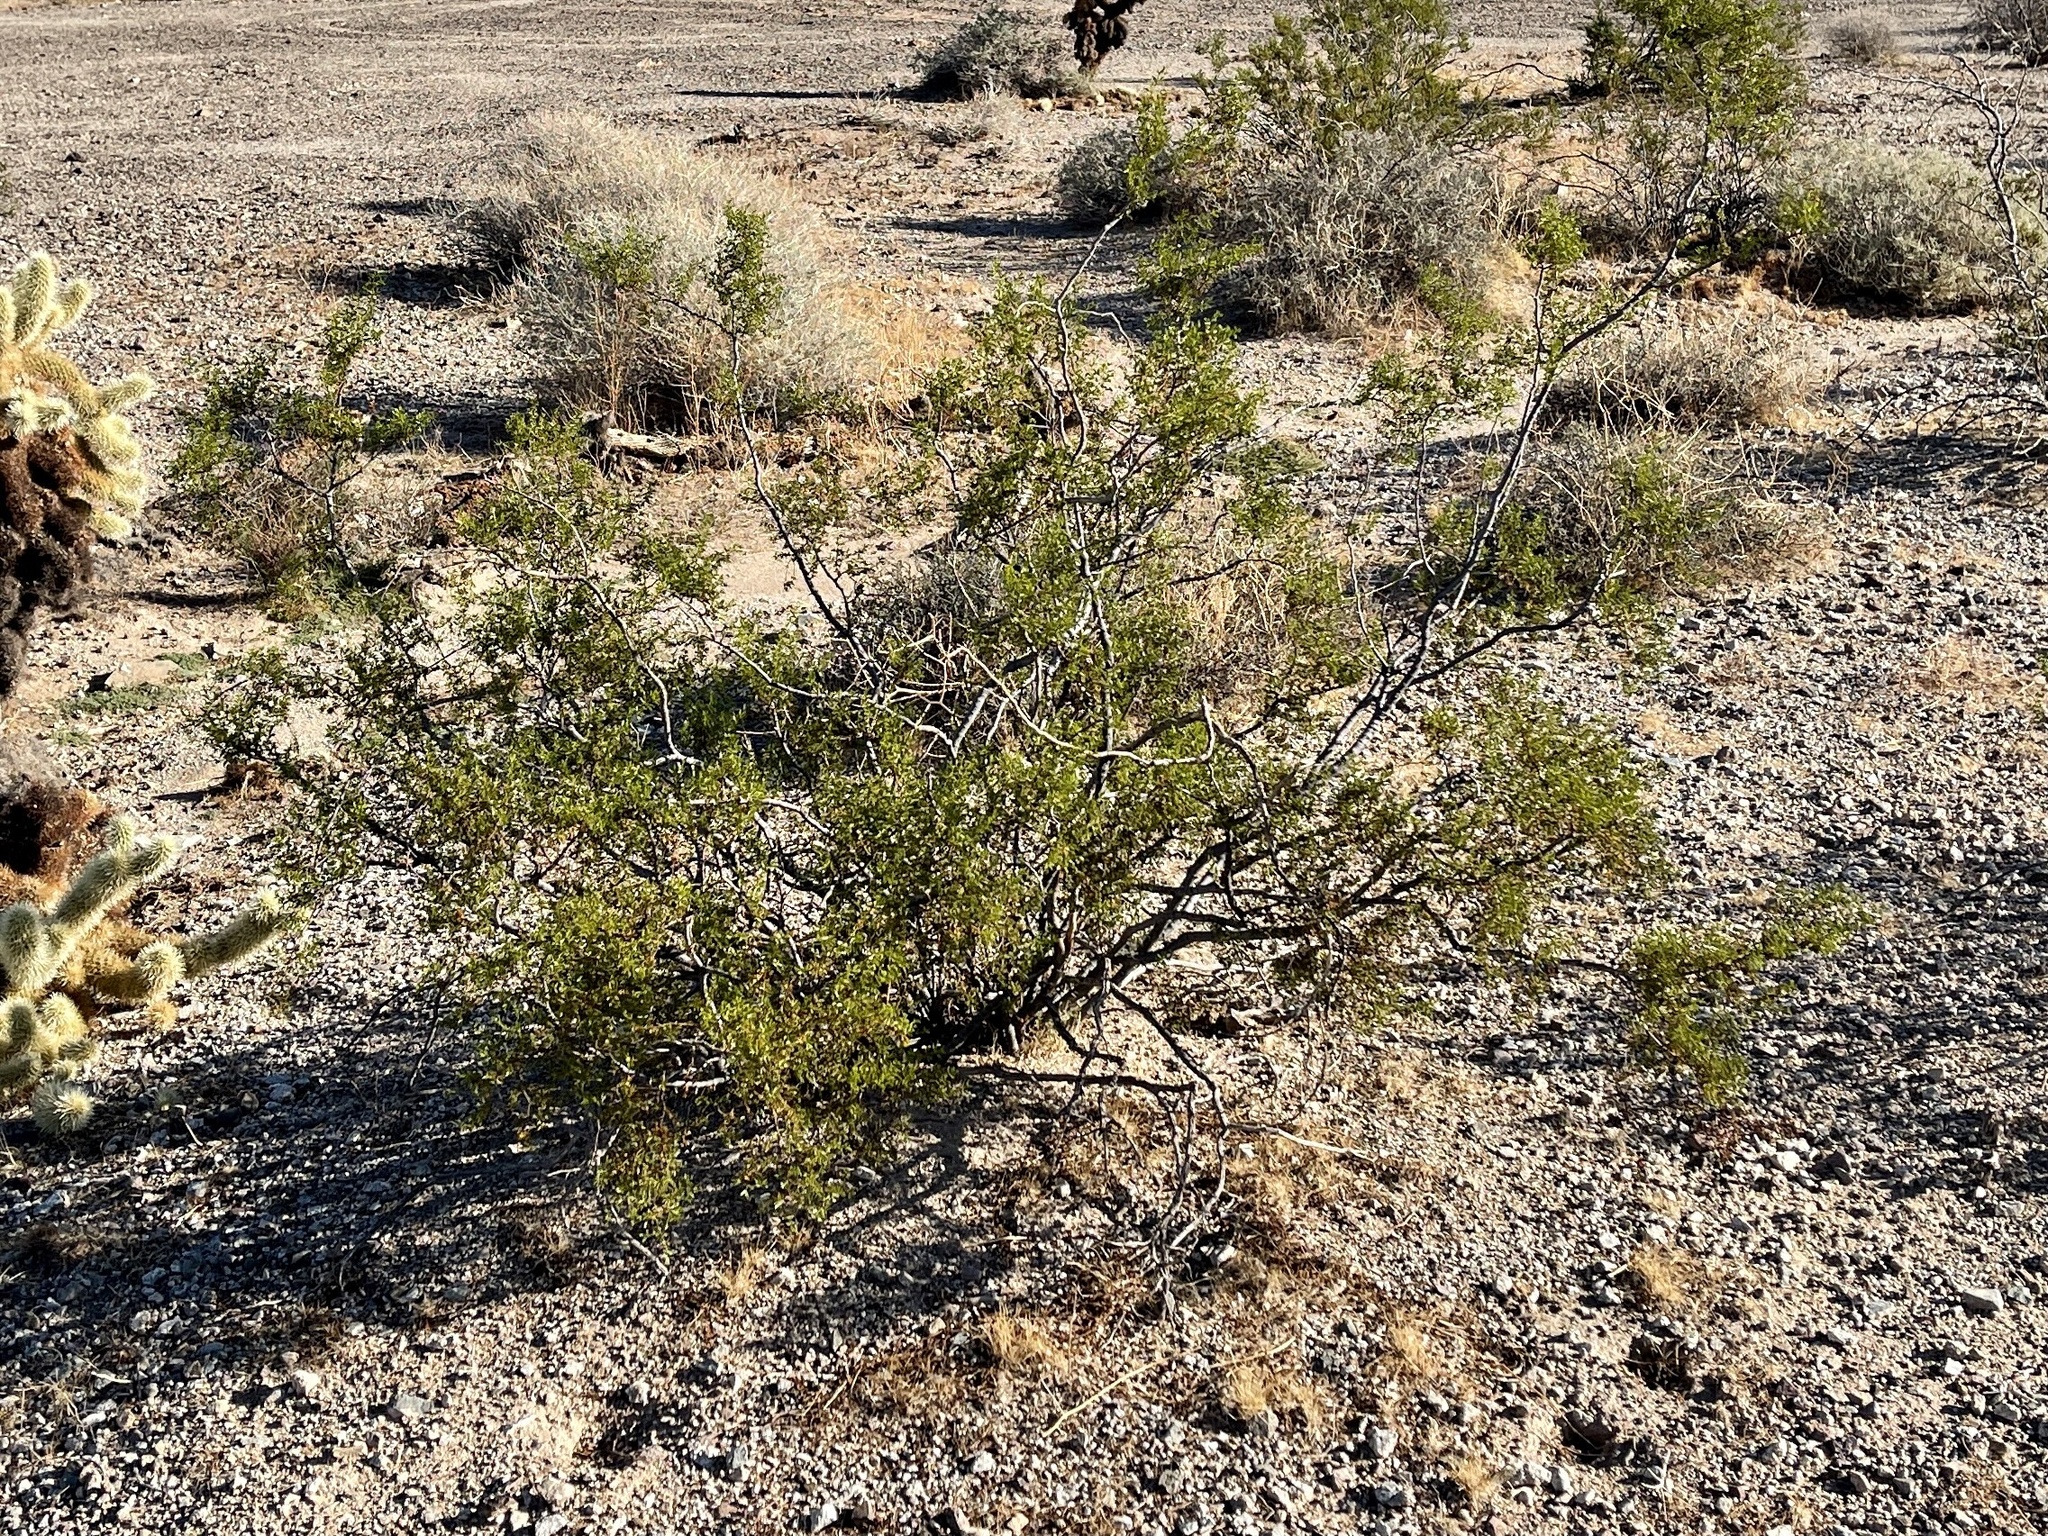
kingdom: Plantae
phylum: Tracheophyta
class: Magnoliopsida
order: Zygophyllales
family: Zygophyllaceae
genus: Larrea
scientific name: Larrea tridentata
